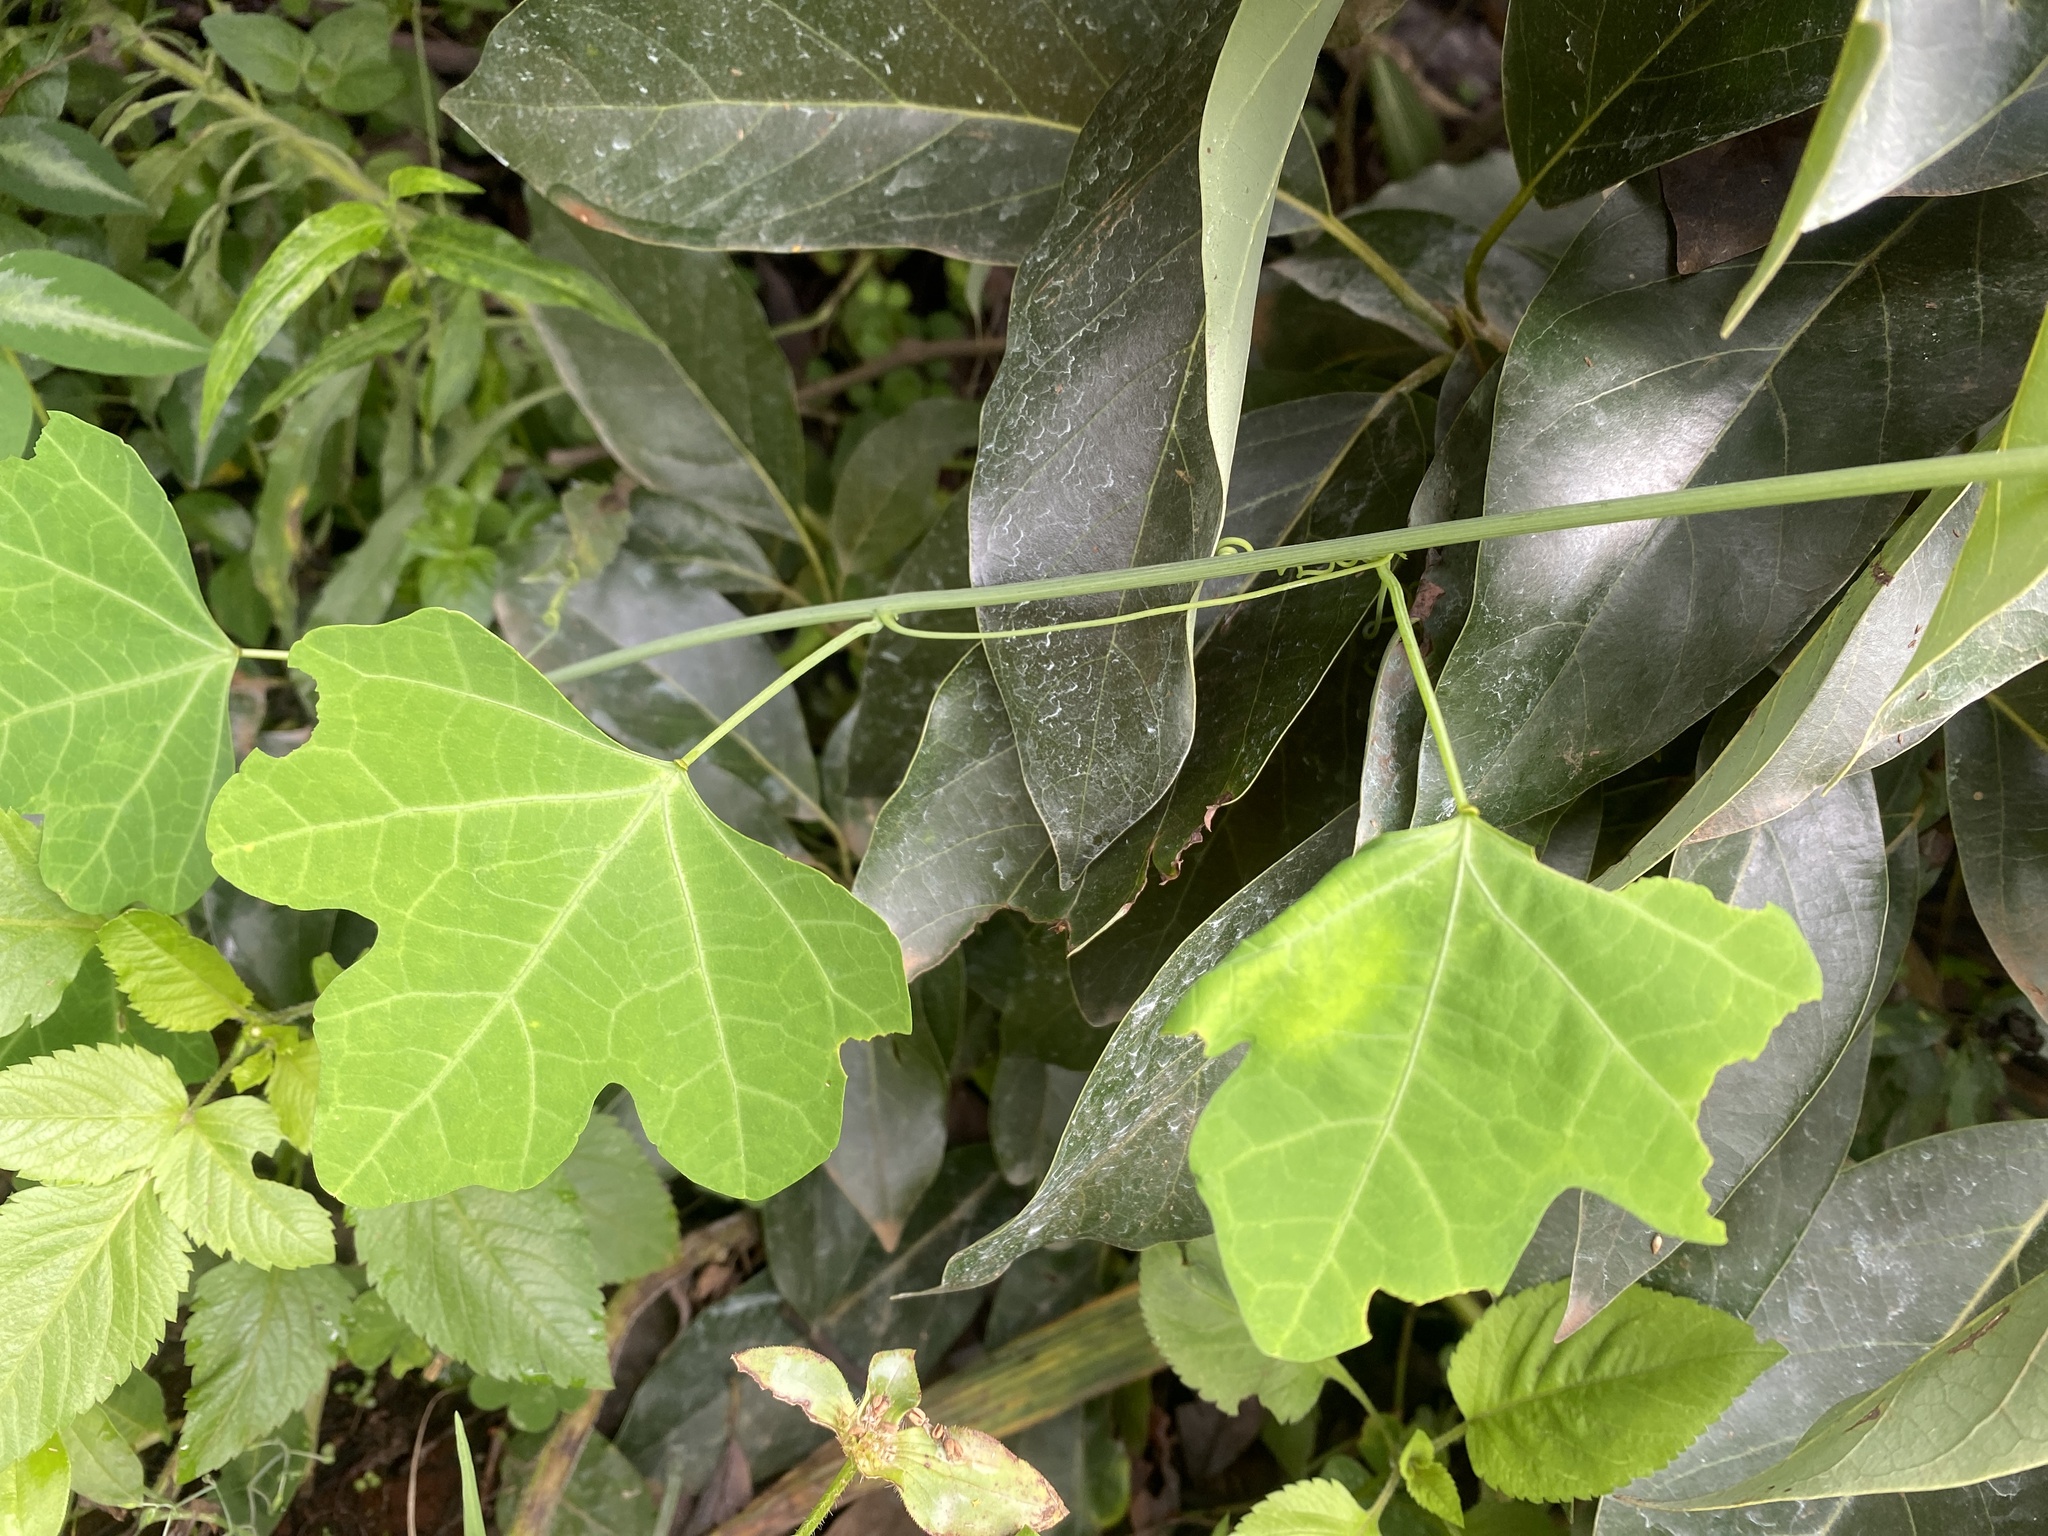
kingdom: Plantae
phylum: Tracheophyta
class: Magnoliopsida
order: Malpighiales
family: Passifloraceae
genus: Adenia
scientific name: Adenia gummifera
